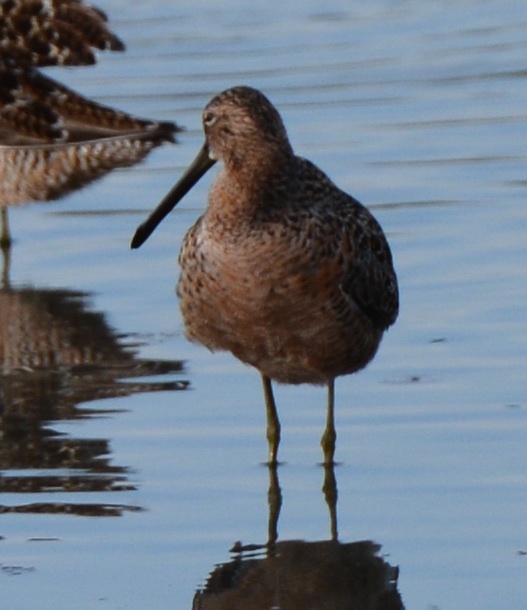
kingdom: Animalia
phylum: Chordata
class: Aves
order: Charadriiformes
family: Scolopacidae
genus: Limnodromus
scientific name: Limnodromus scolopaceus
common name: Long-billed dowitcher
